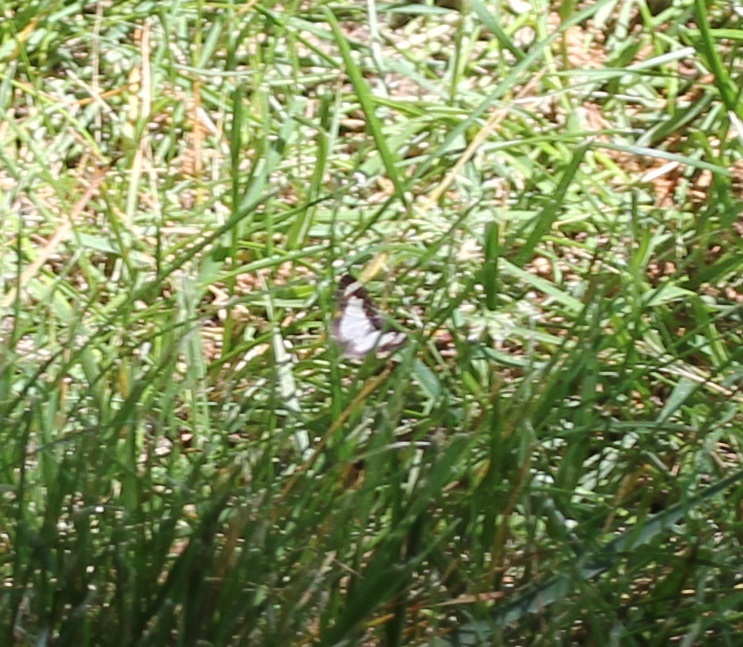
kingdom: Animalia
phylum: Arthropoda
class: Insecta
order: Lepidoptera
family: Geometridae
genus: Heliomata
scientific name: Heliomata cycladata
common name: Common spring moth
